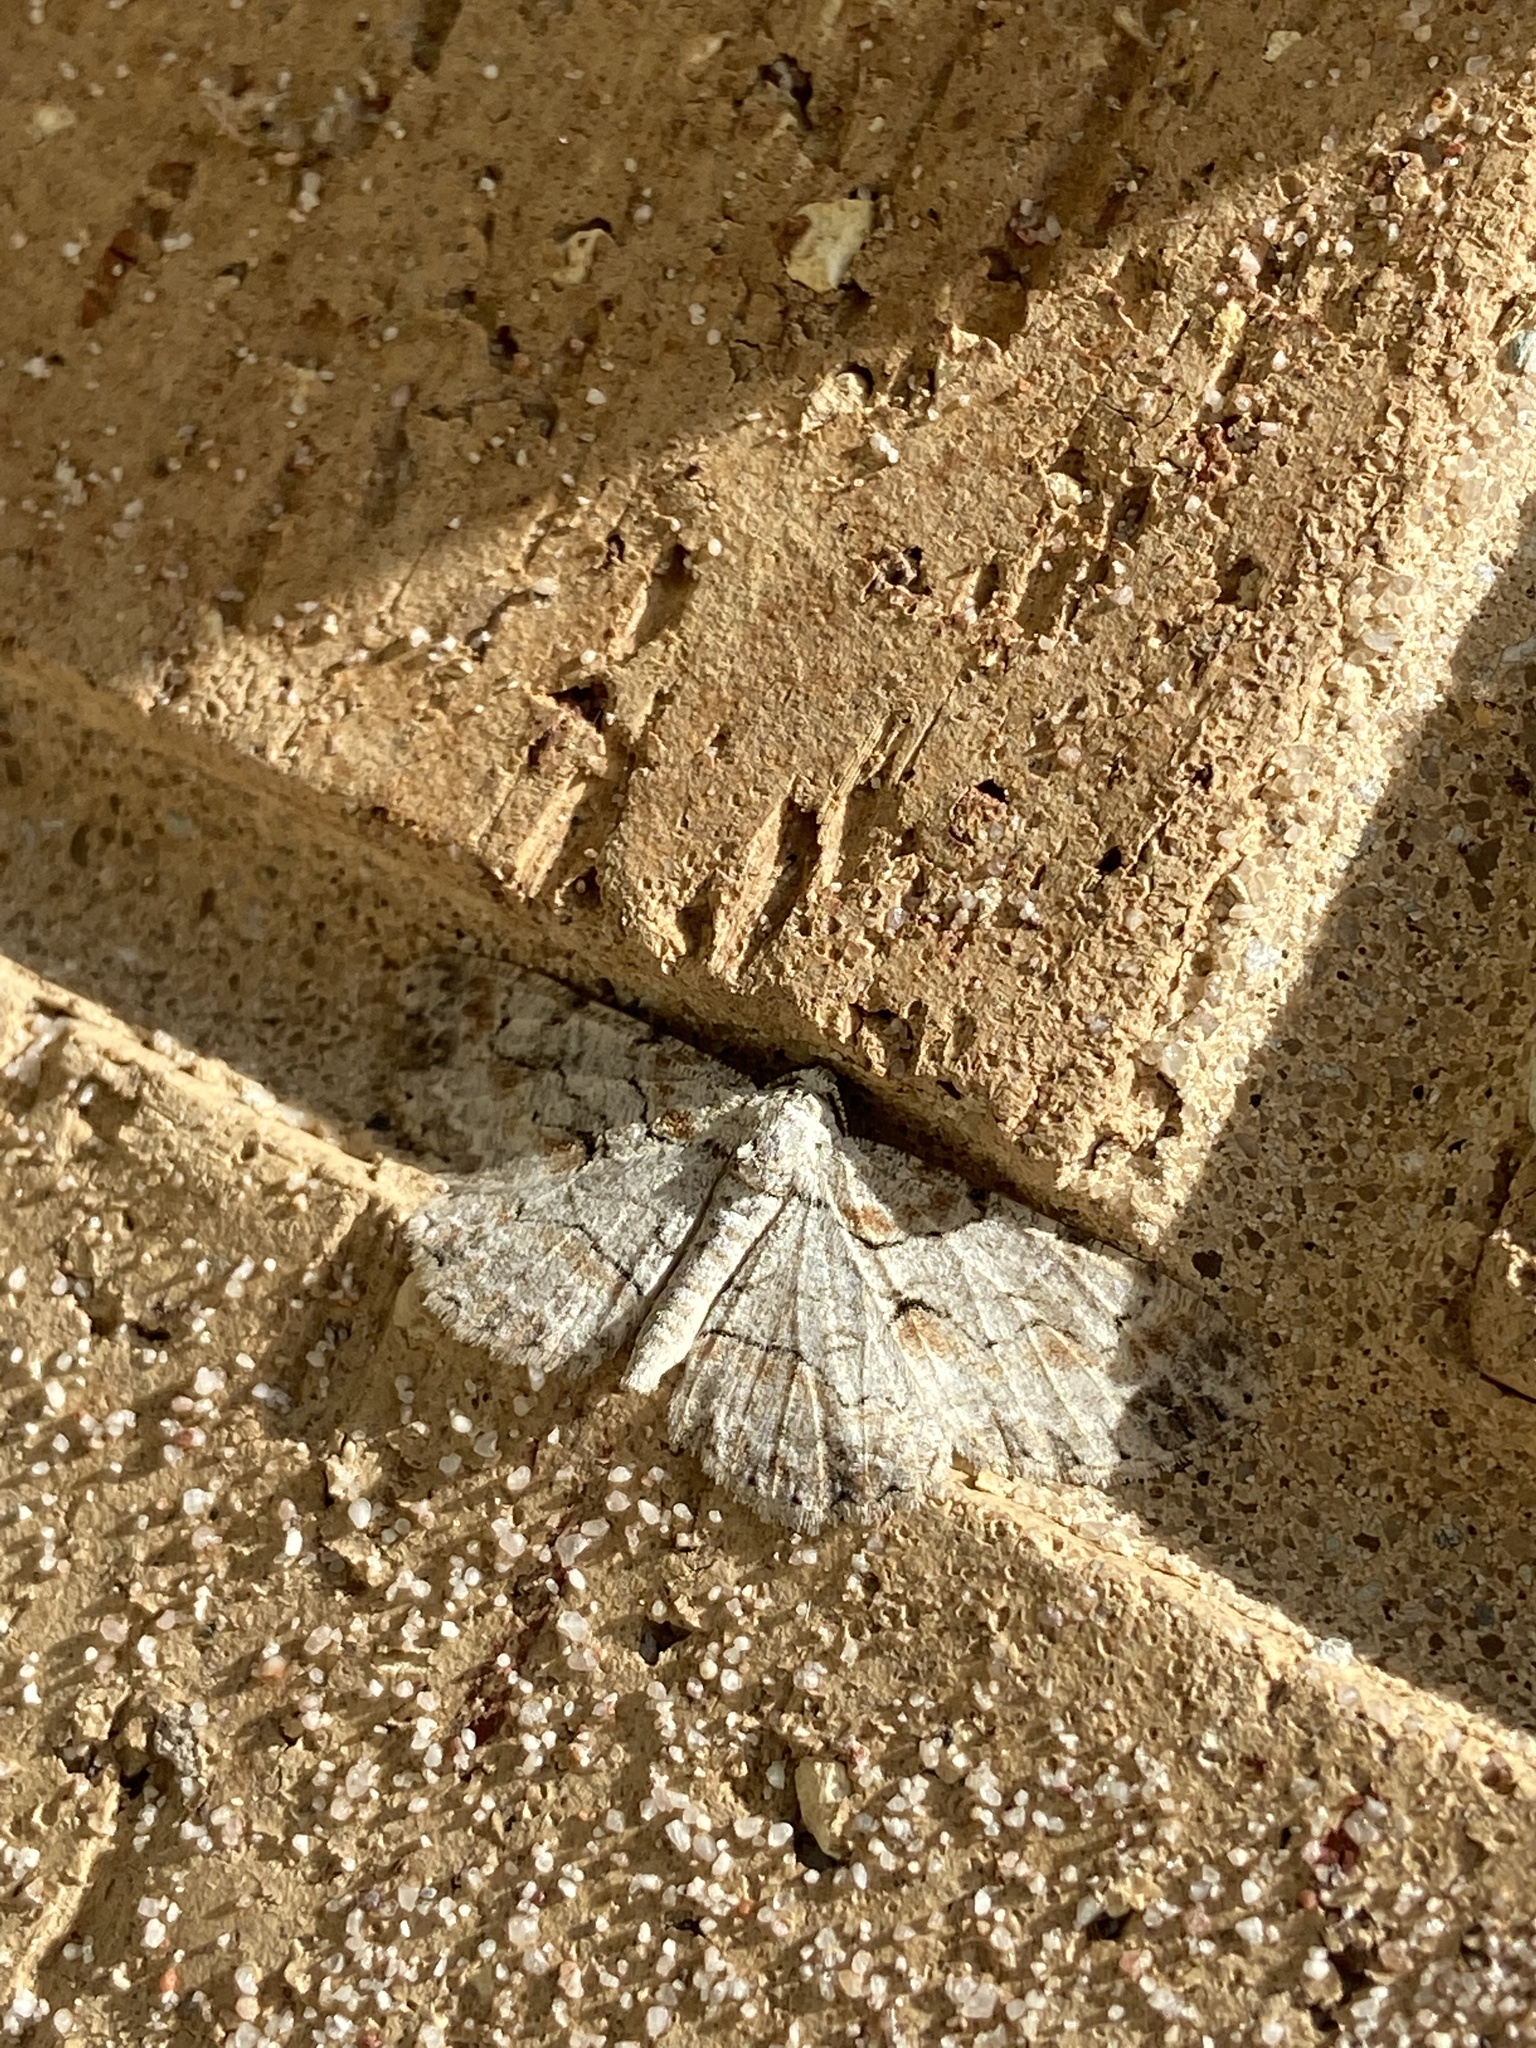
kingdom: Animalia
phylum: Arthropoda
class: Insecta
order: Lepidoptera
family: Geometridae
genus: Iridopsis
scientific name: Iridopsis defectaria
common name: Brown-shaded gray
